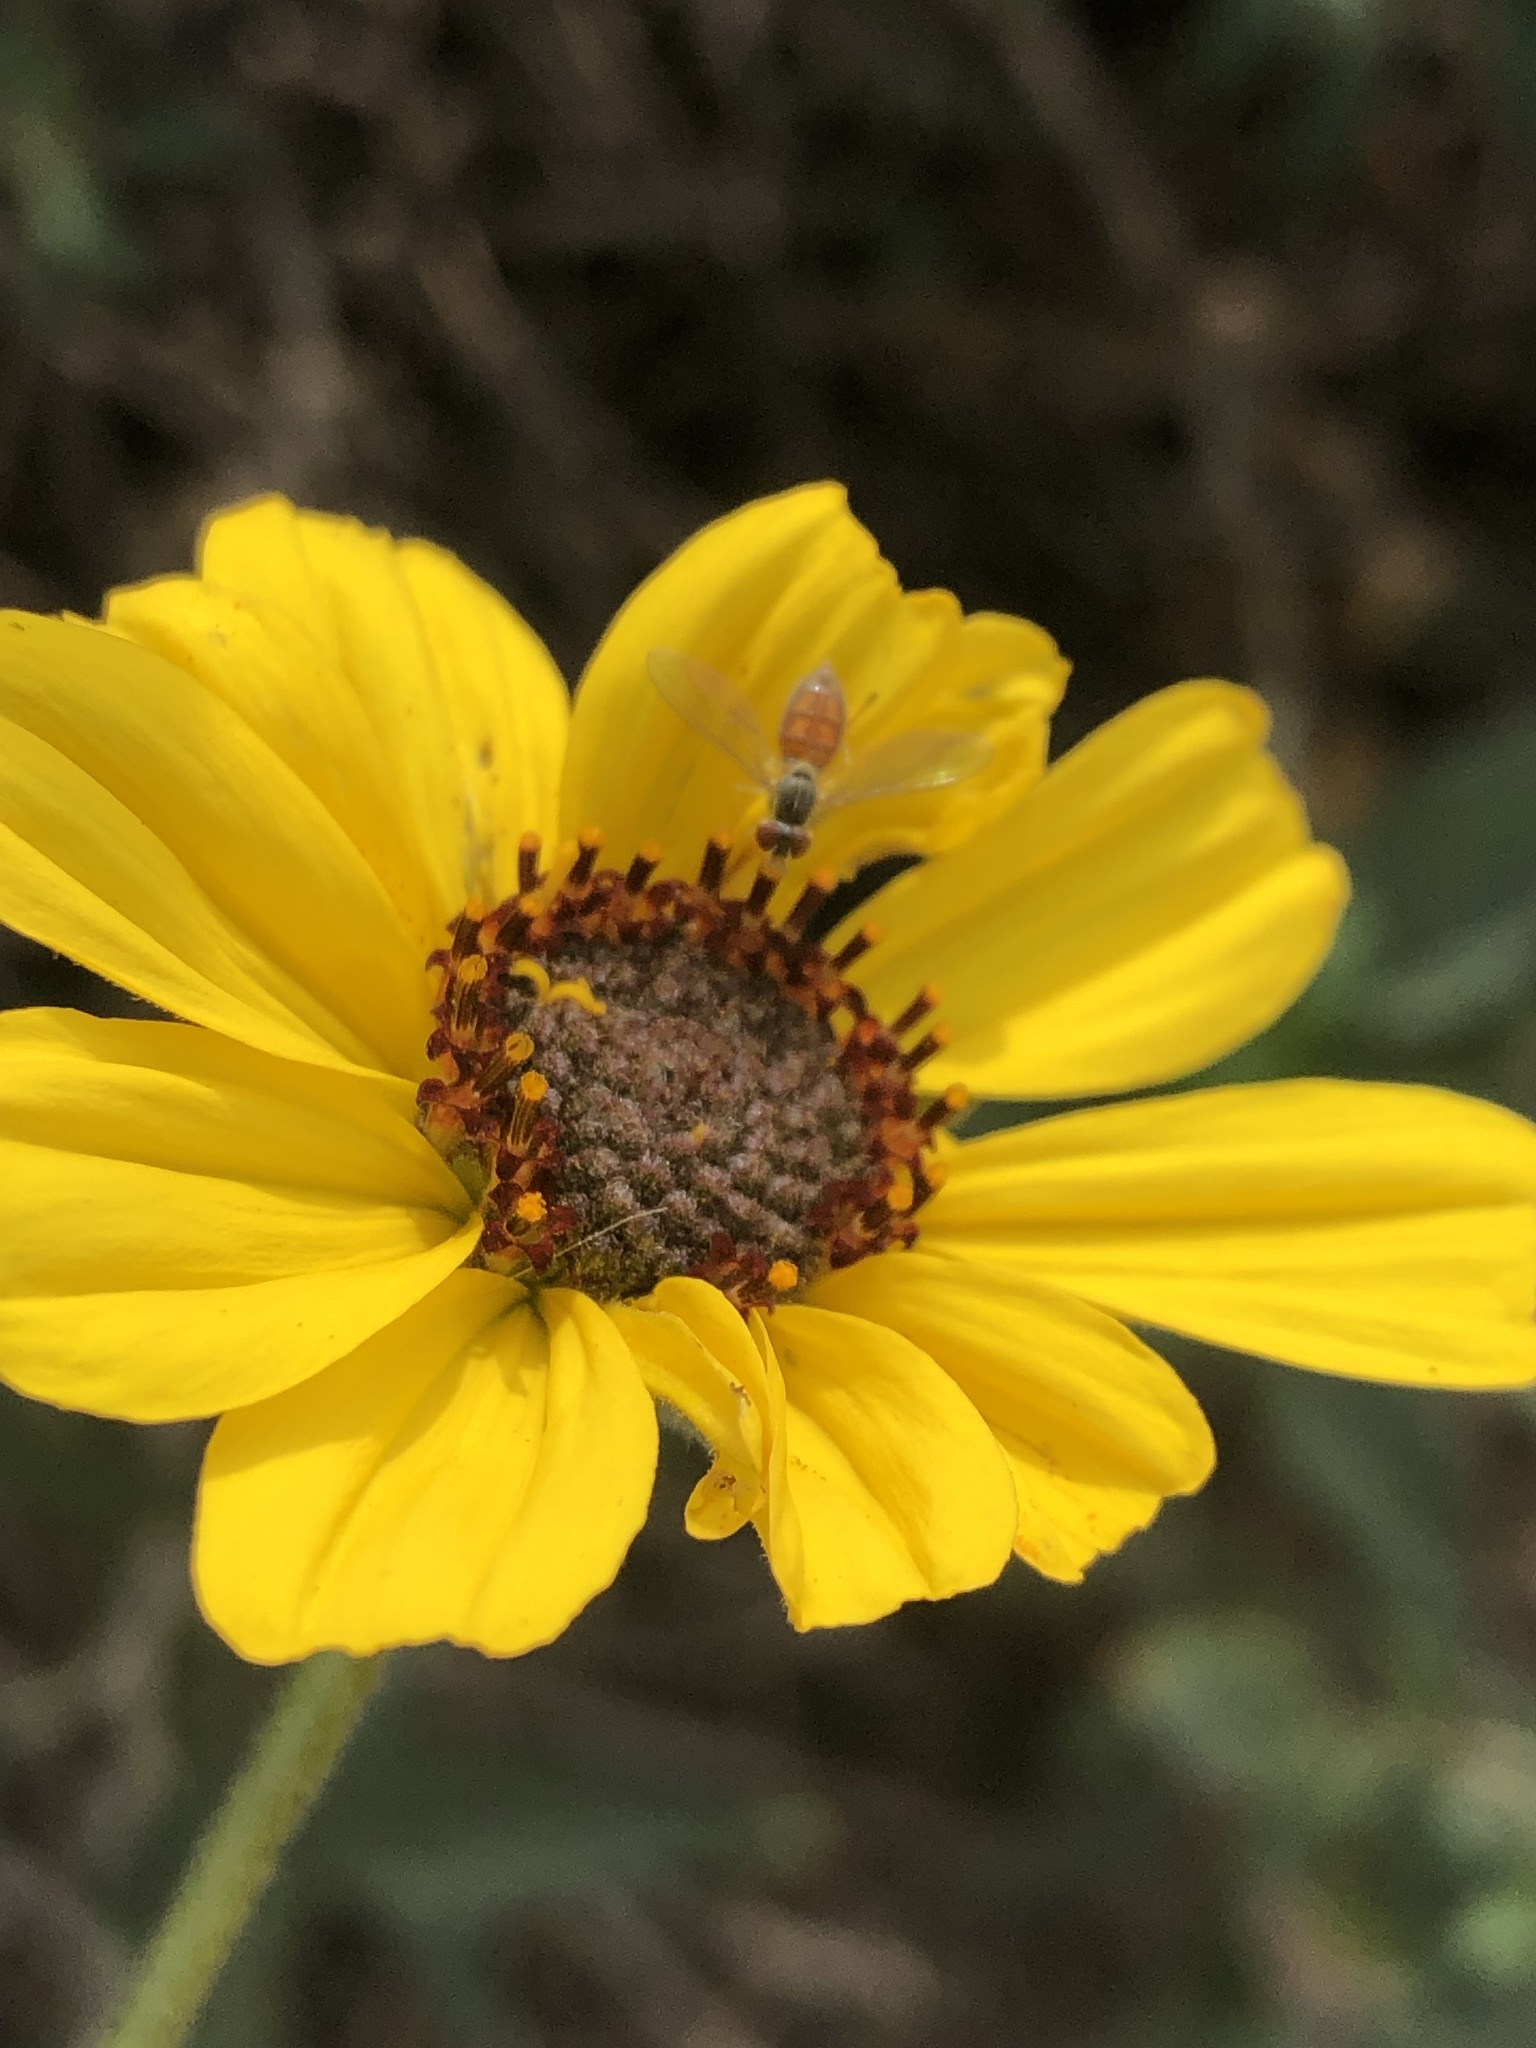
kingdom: Animalia
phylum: Arthropoda
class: Insecta
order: Diptera
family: Syrphidae
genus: Toxomerus
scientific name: Toxomerus marginatus
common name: Syrphid fly
